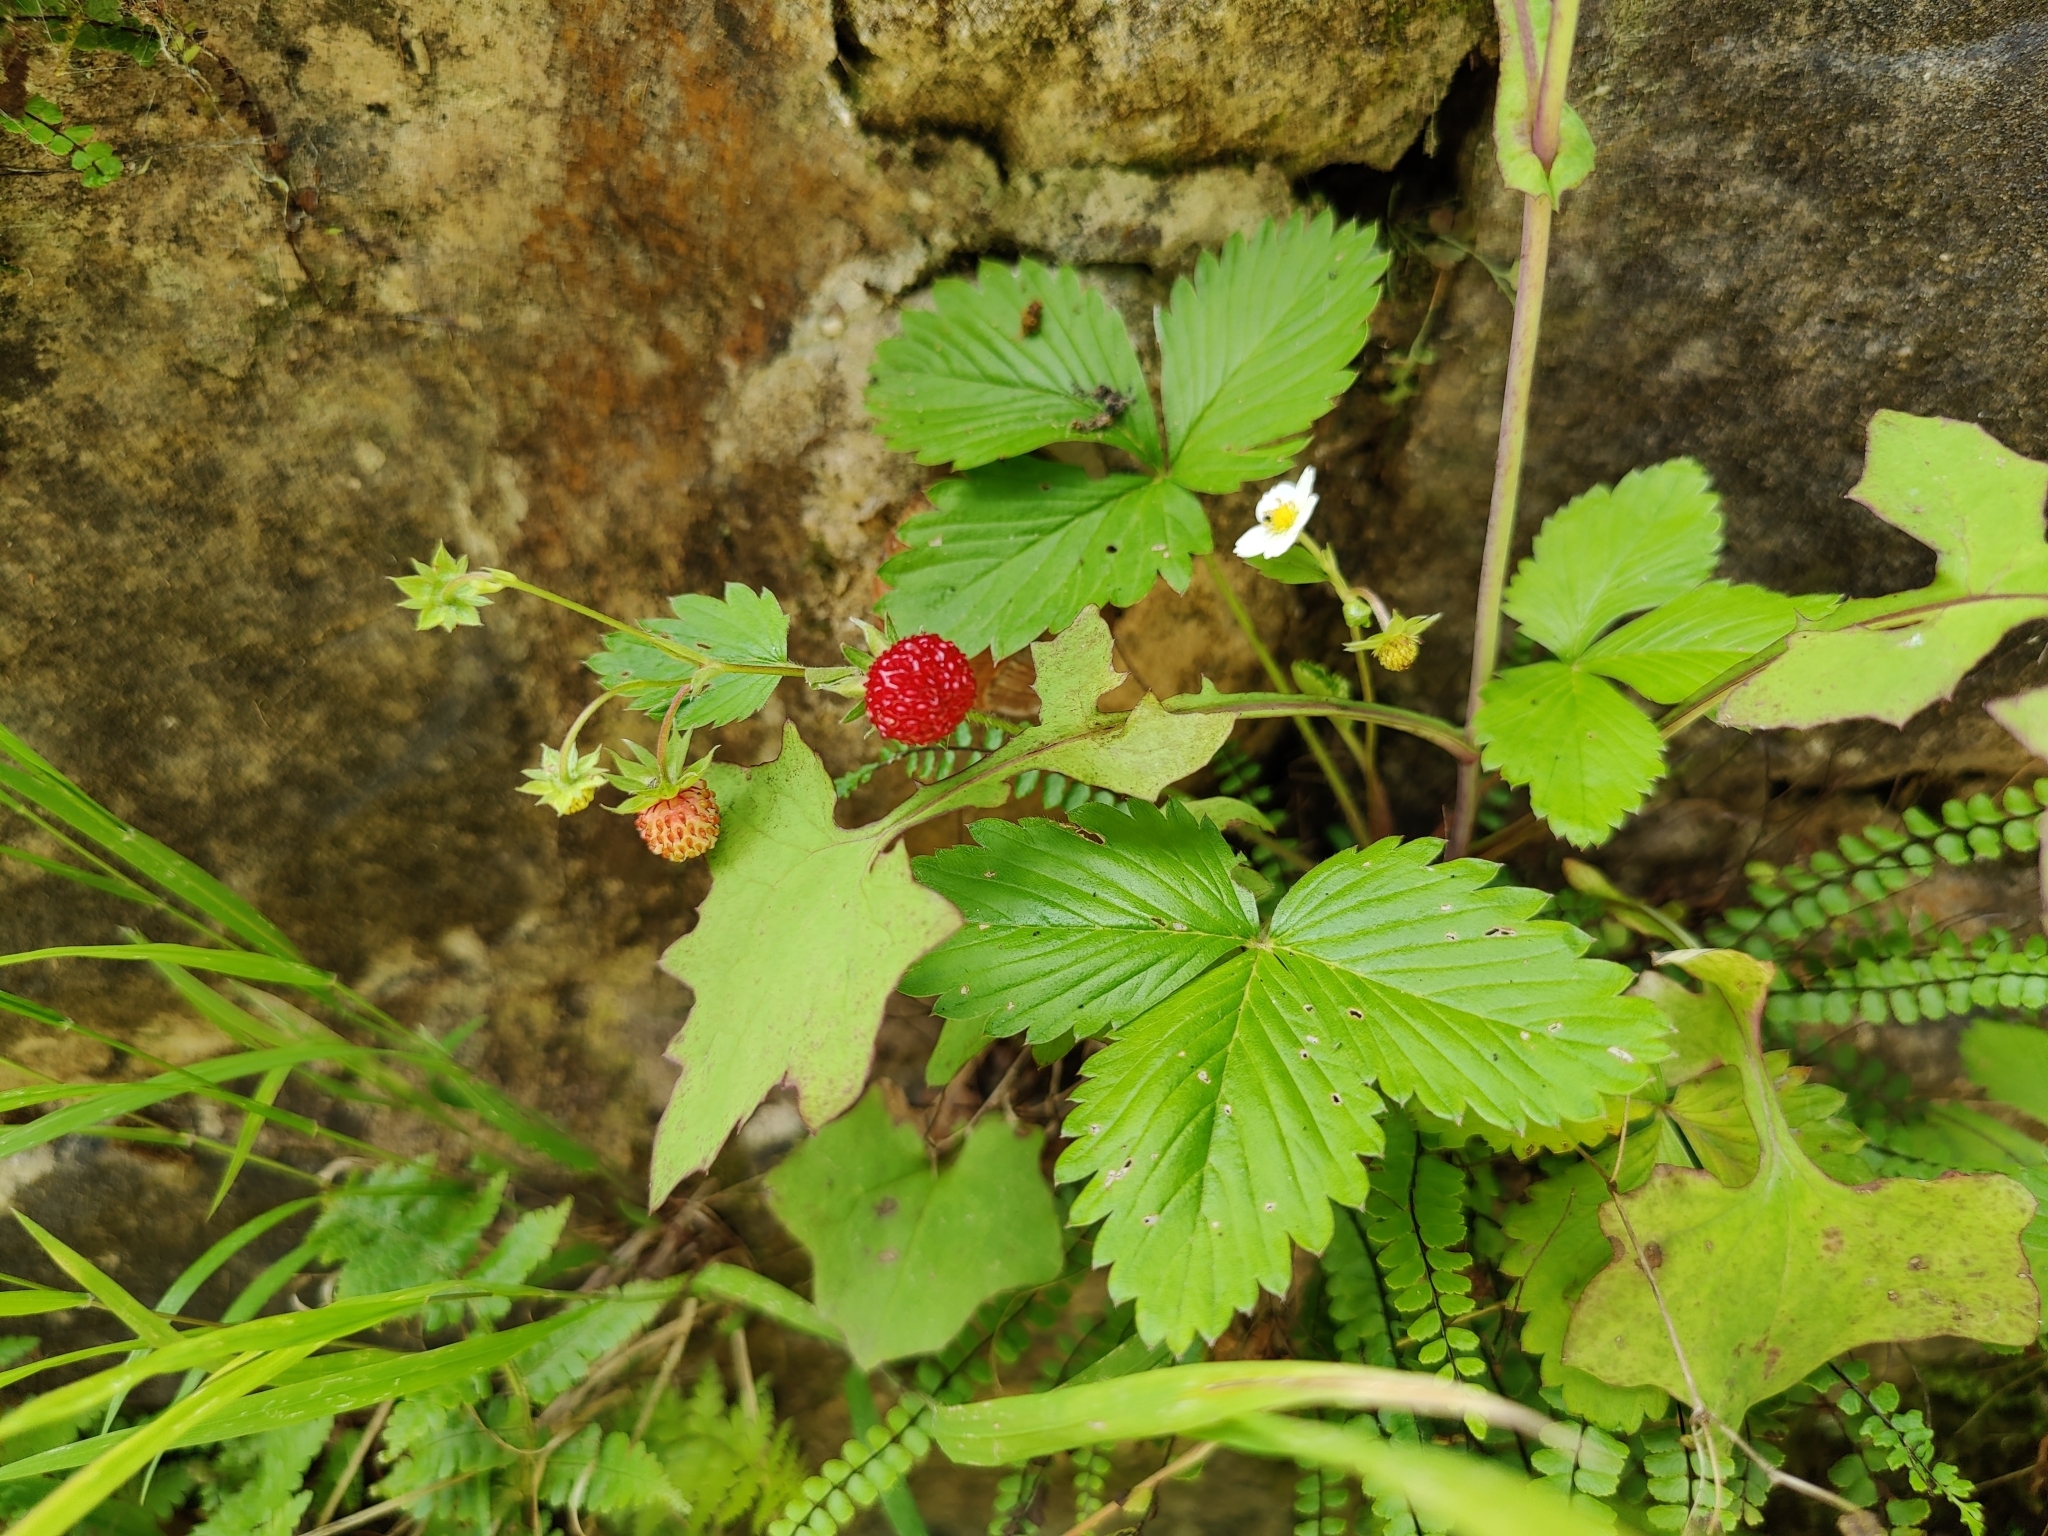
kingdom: Plantae
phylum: Tracheophyta
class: Magnoliopsida
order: Rosales
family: Rosaceae
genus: Fragaria
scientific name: Fragaria vesca
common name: Wild strawberry
